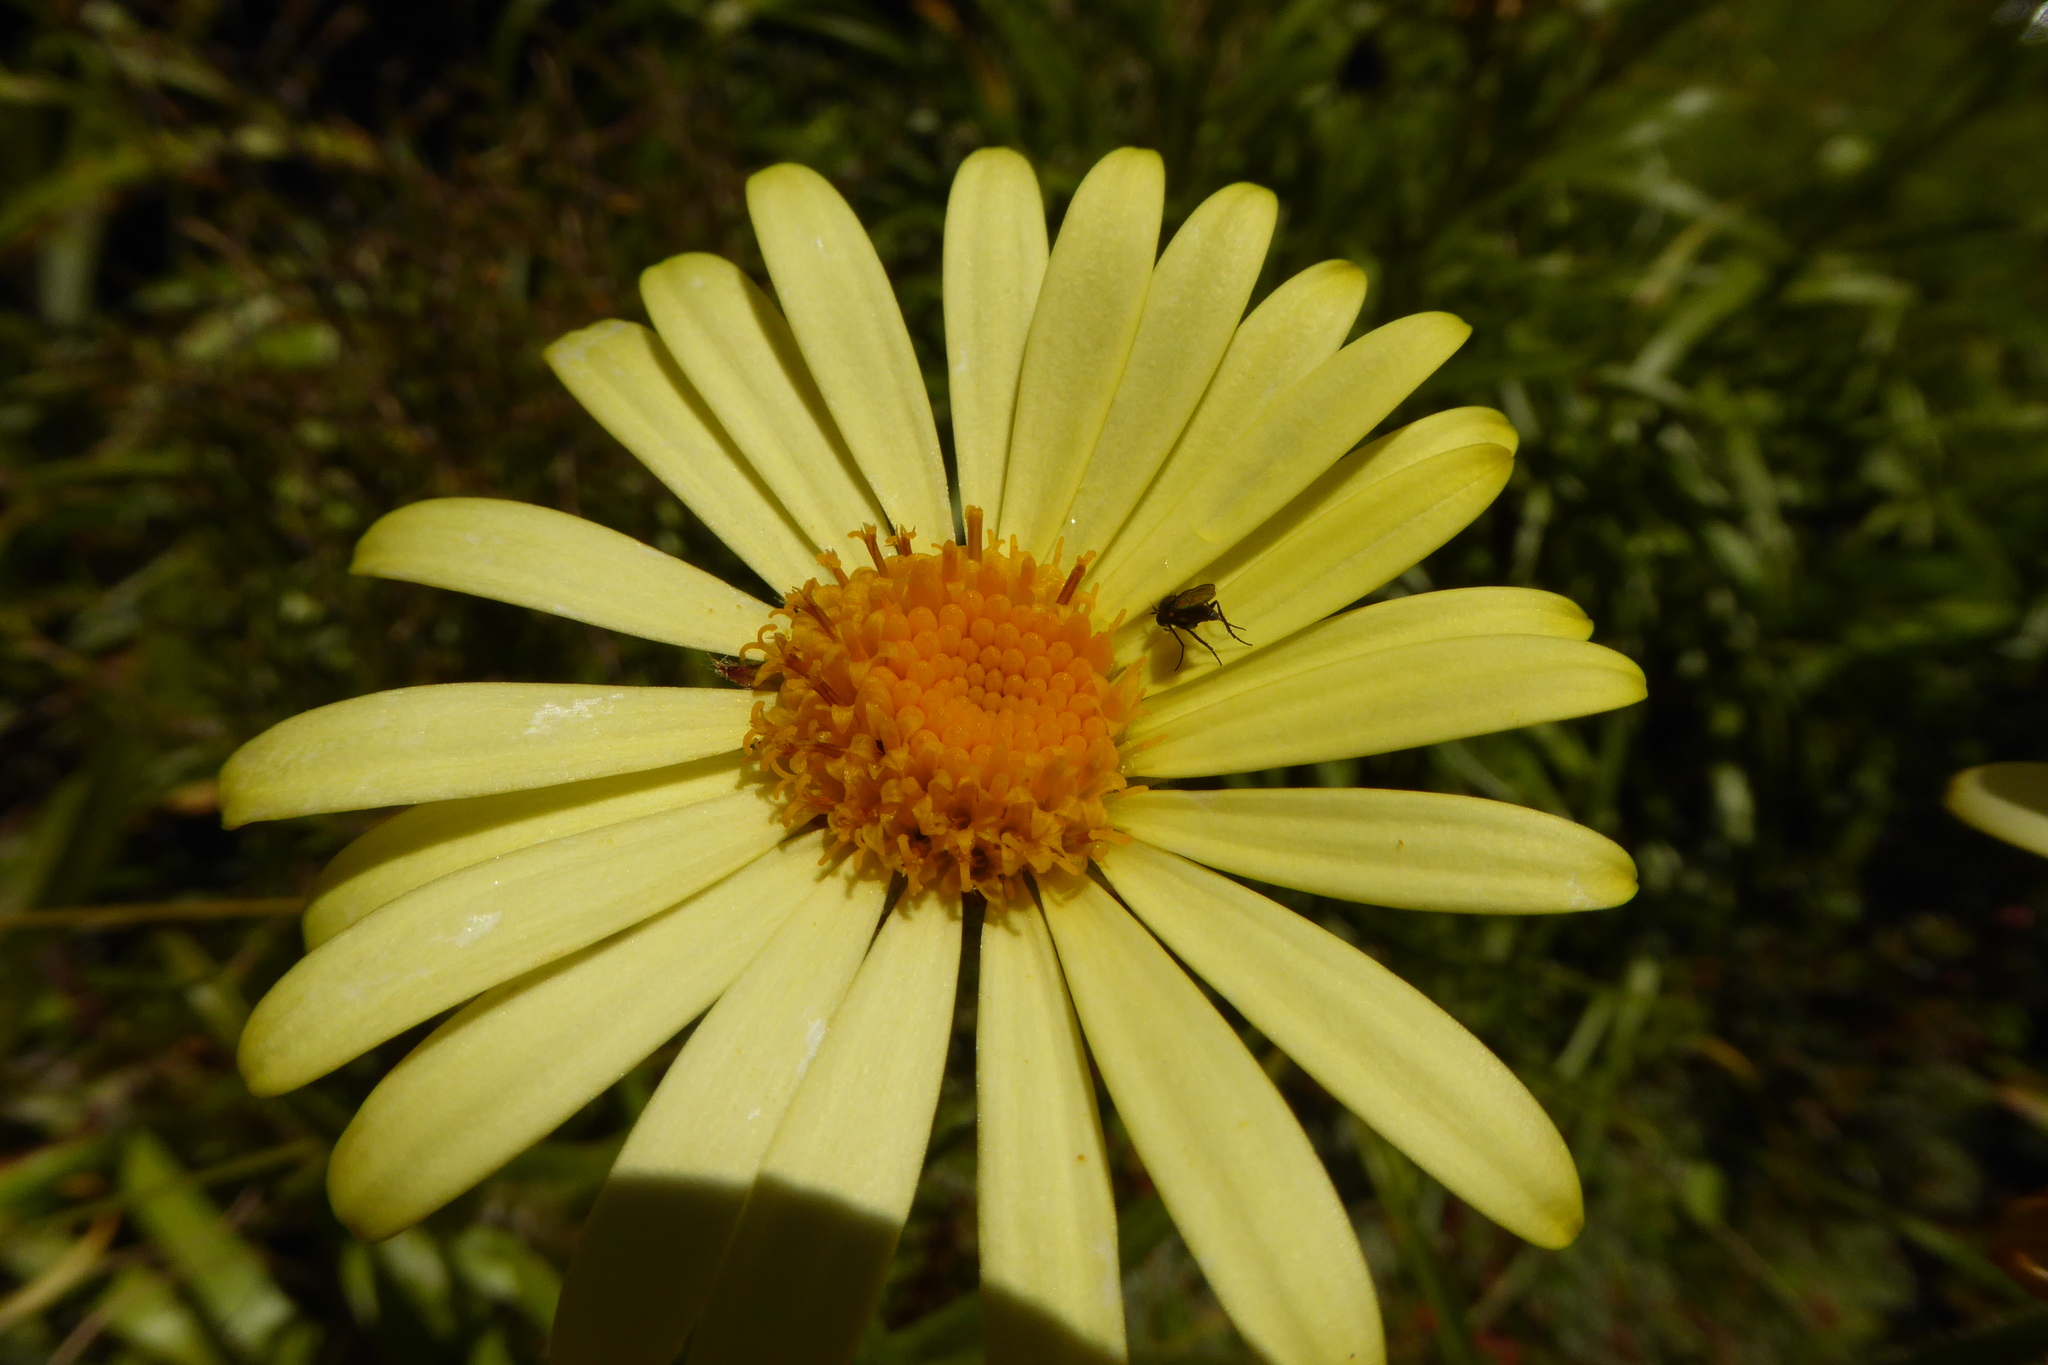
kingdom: Plantae
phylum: Tracheophyta
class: Magnoliopsida
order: Asterales
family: Asteraceae
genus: Dolichoglottis
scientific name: Dolichoglottis
